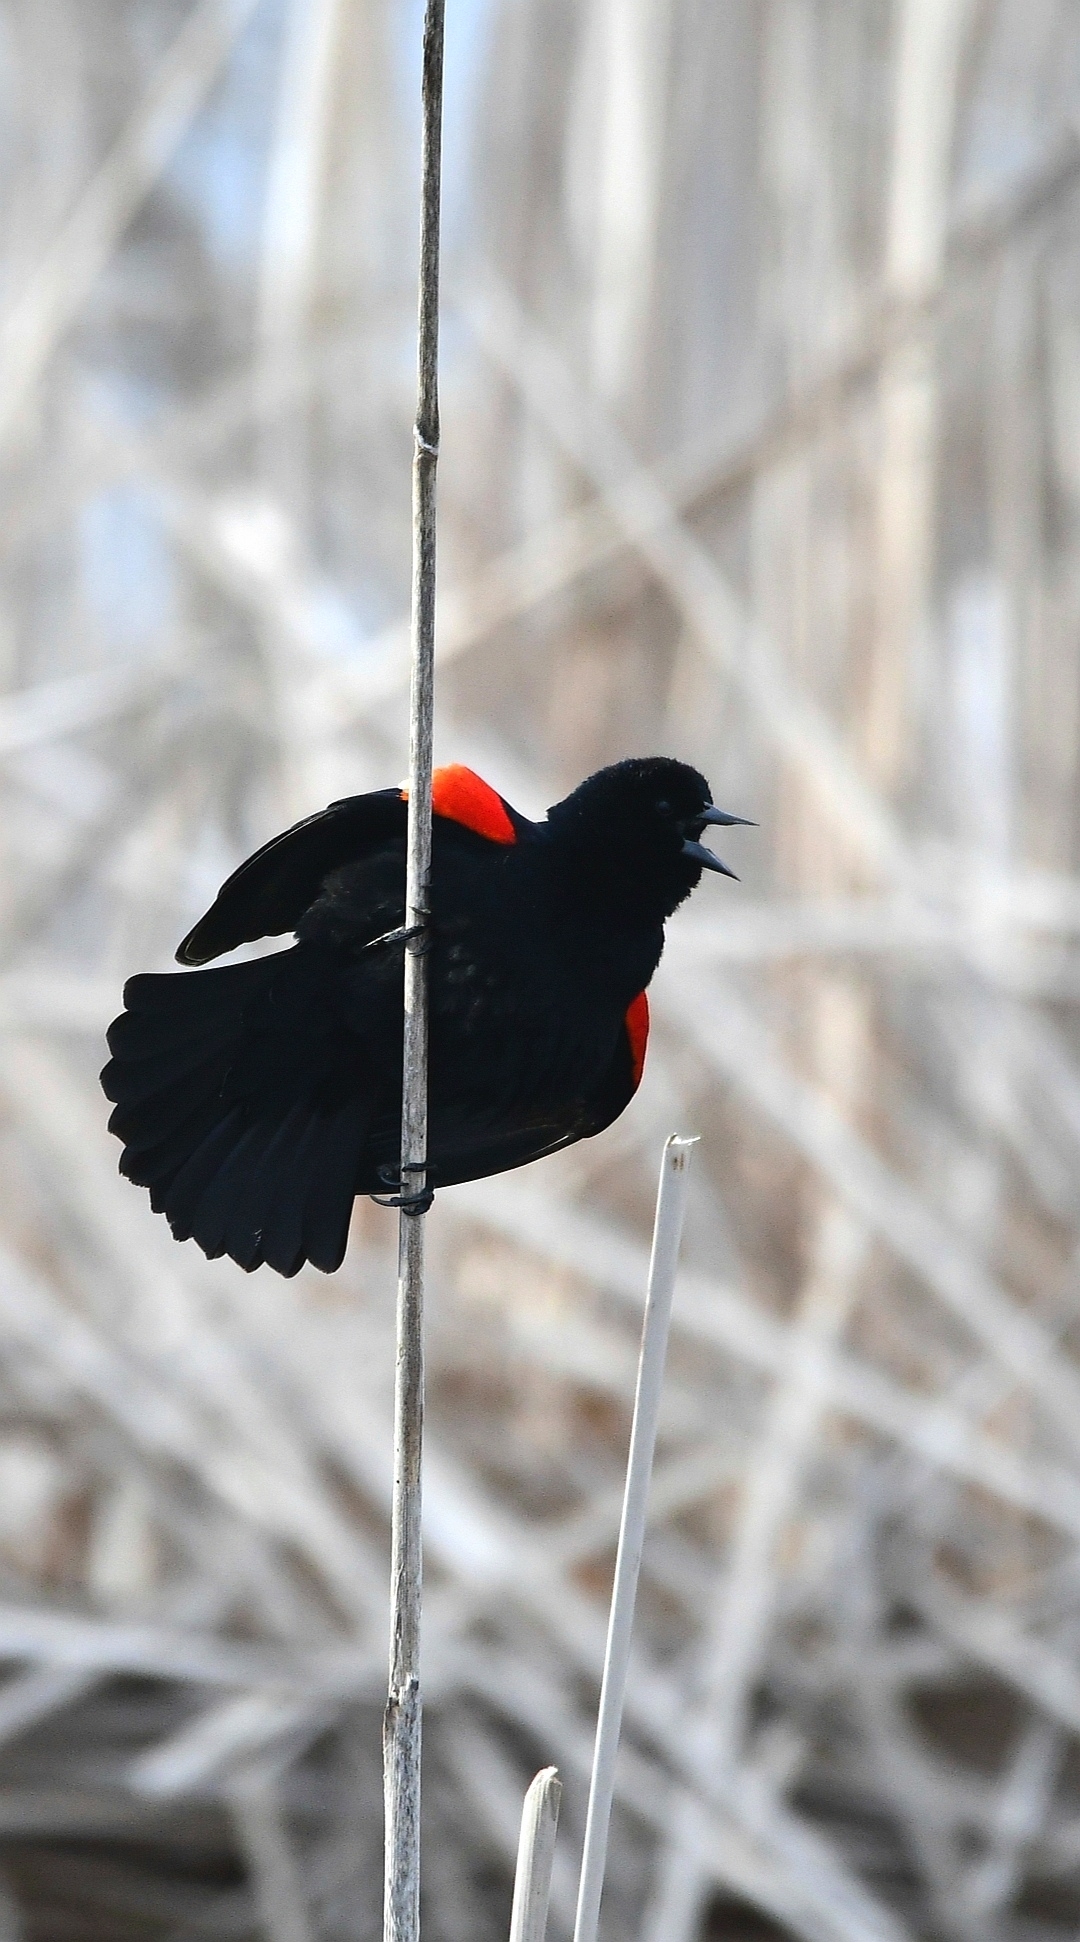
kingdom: Animalia
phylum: Chordata
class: Aves
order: Passeriformes
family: Icteridae
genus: Agelaius
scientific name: Agelaius phoeniceus
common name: Red-winged blackbird
